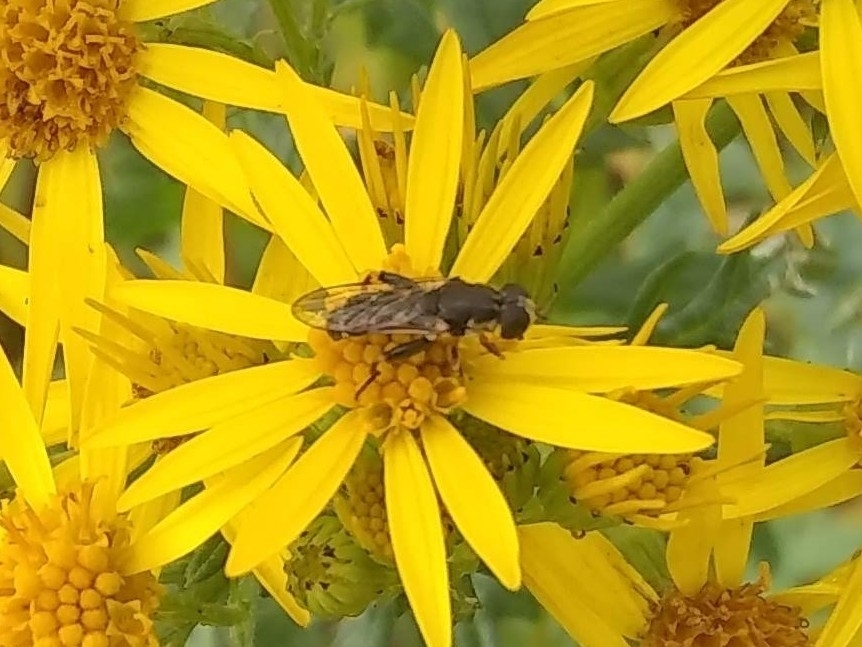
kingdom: Animalia
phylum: Arthropoda
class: Insecta
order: Diptera
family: Syrphidae
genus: Syritta
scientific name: Syritta pipiens
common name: Hover fly
